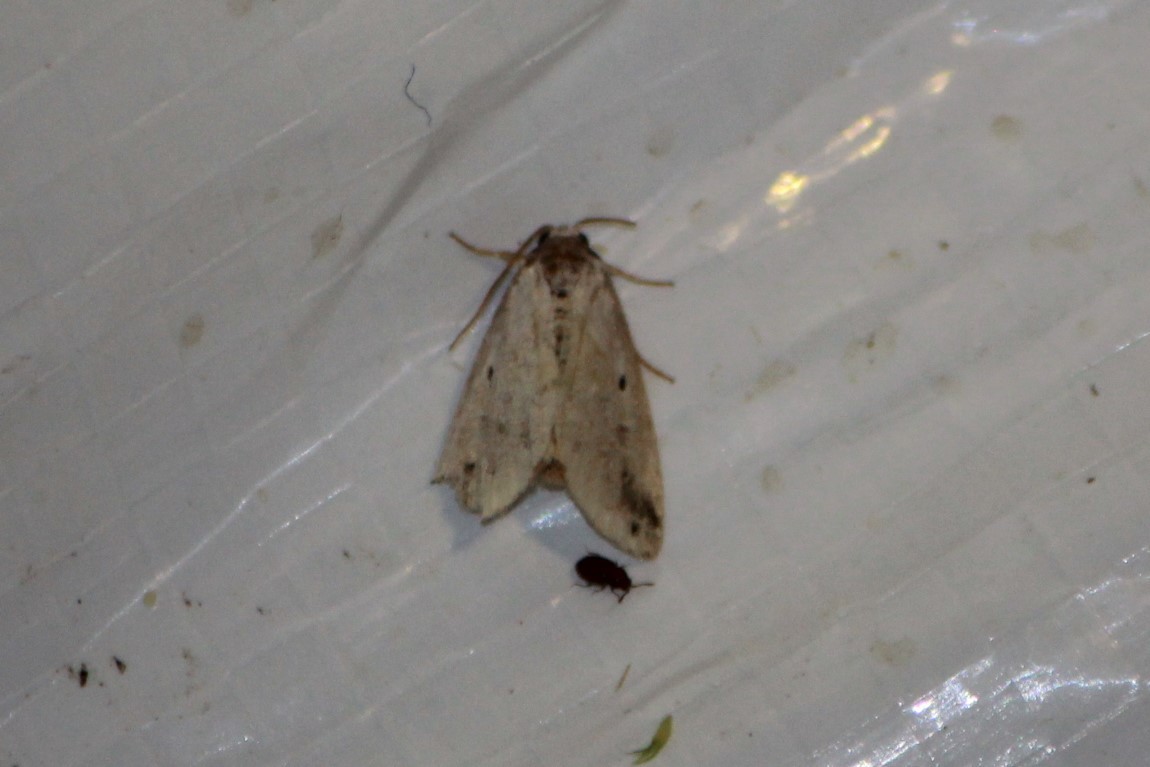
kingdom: Animalia
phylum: Arthropoda
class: Insecta
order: Lepidoptera
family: Noctuidae
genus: Maliattha
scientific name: Maliattha synochitis
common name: Black-dotted glyph
